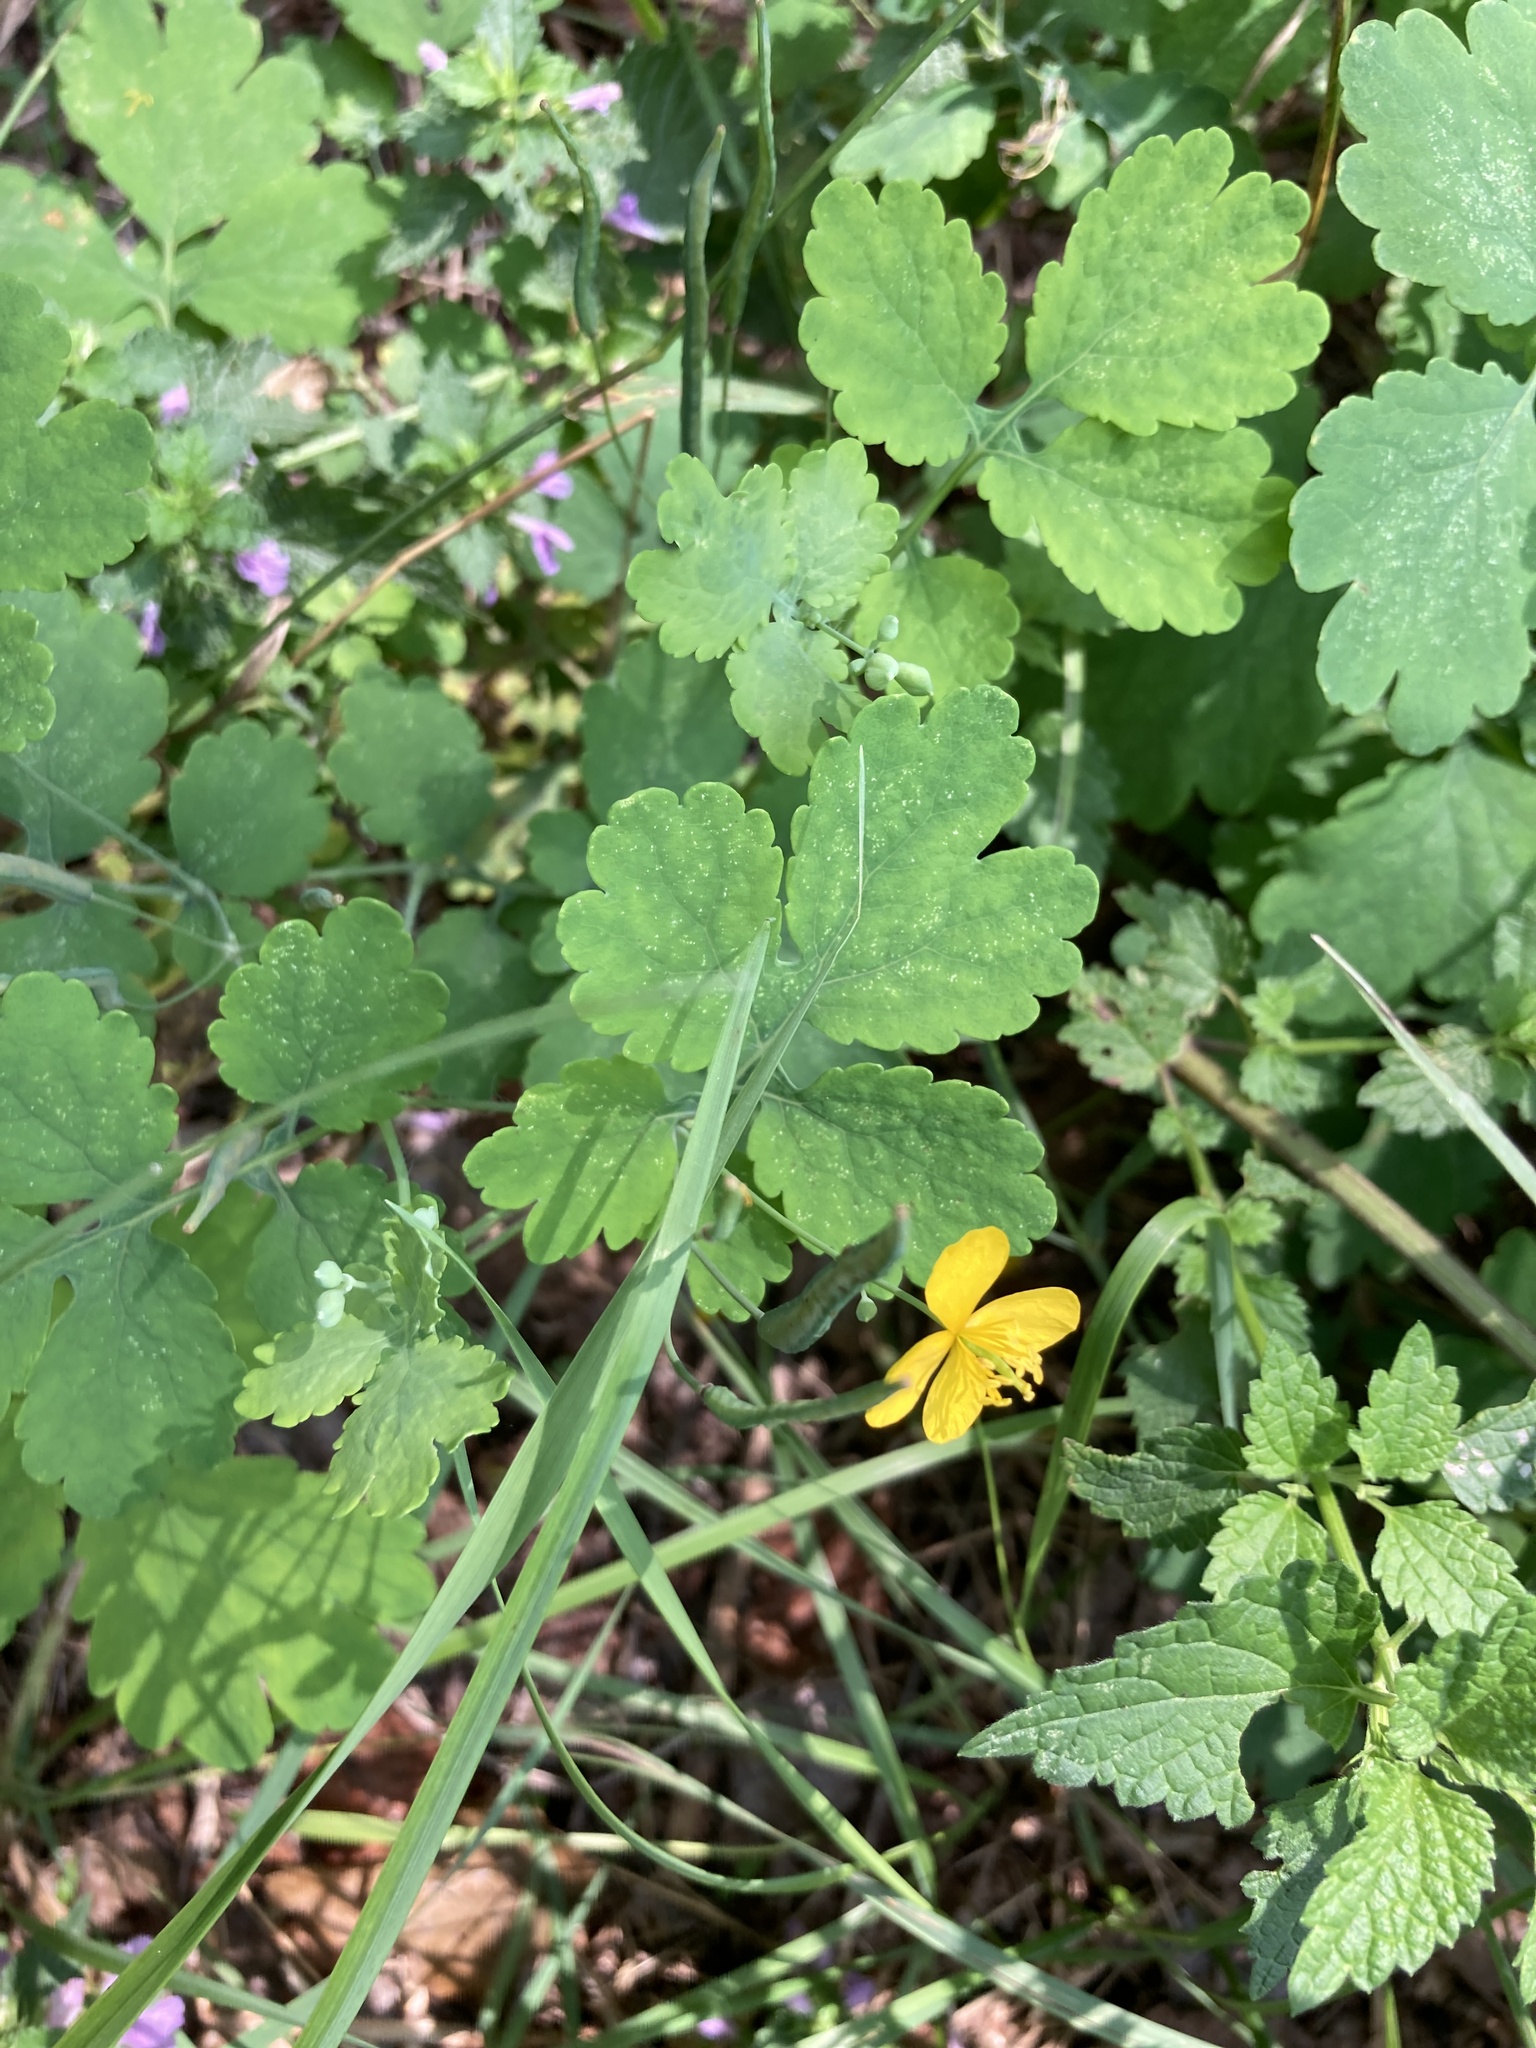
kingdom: Plantae
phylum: Tracheophyta
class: Magnoliopsida
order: Ranunculales
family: Papaveraceae
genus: Chelidonium
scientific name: Chelidonium majus
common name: Greater celandine
